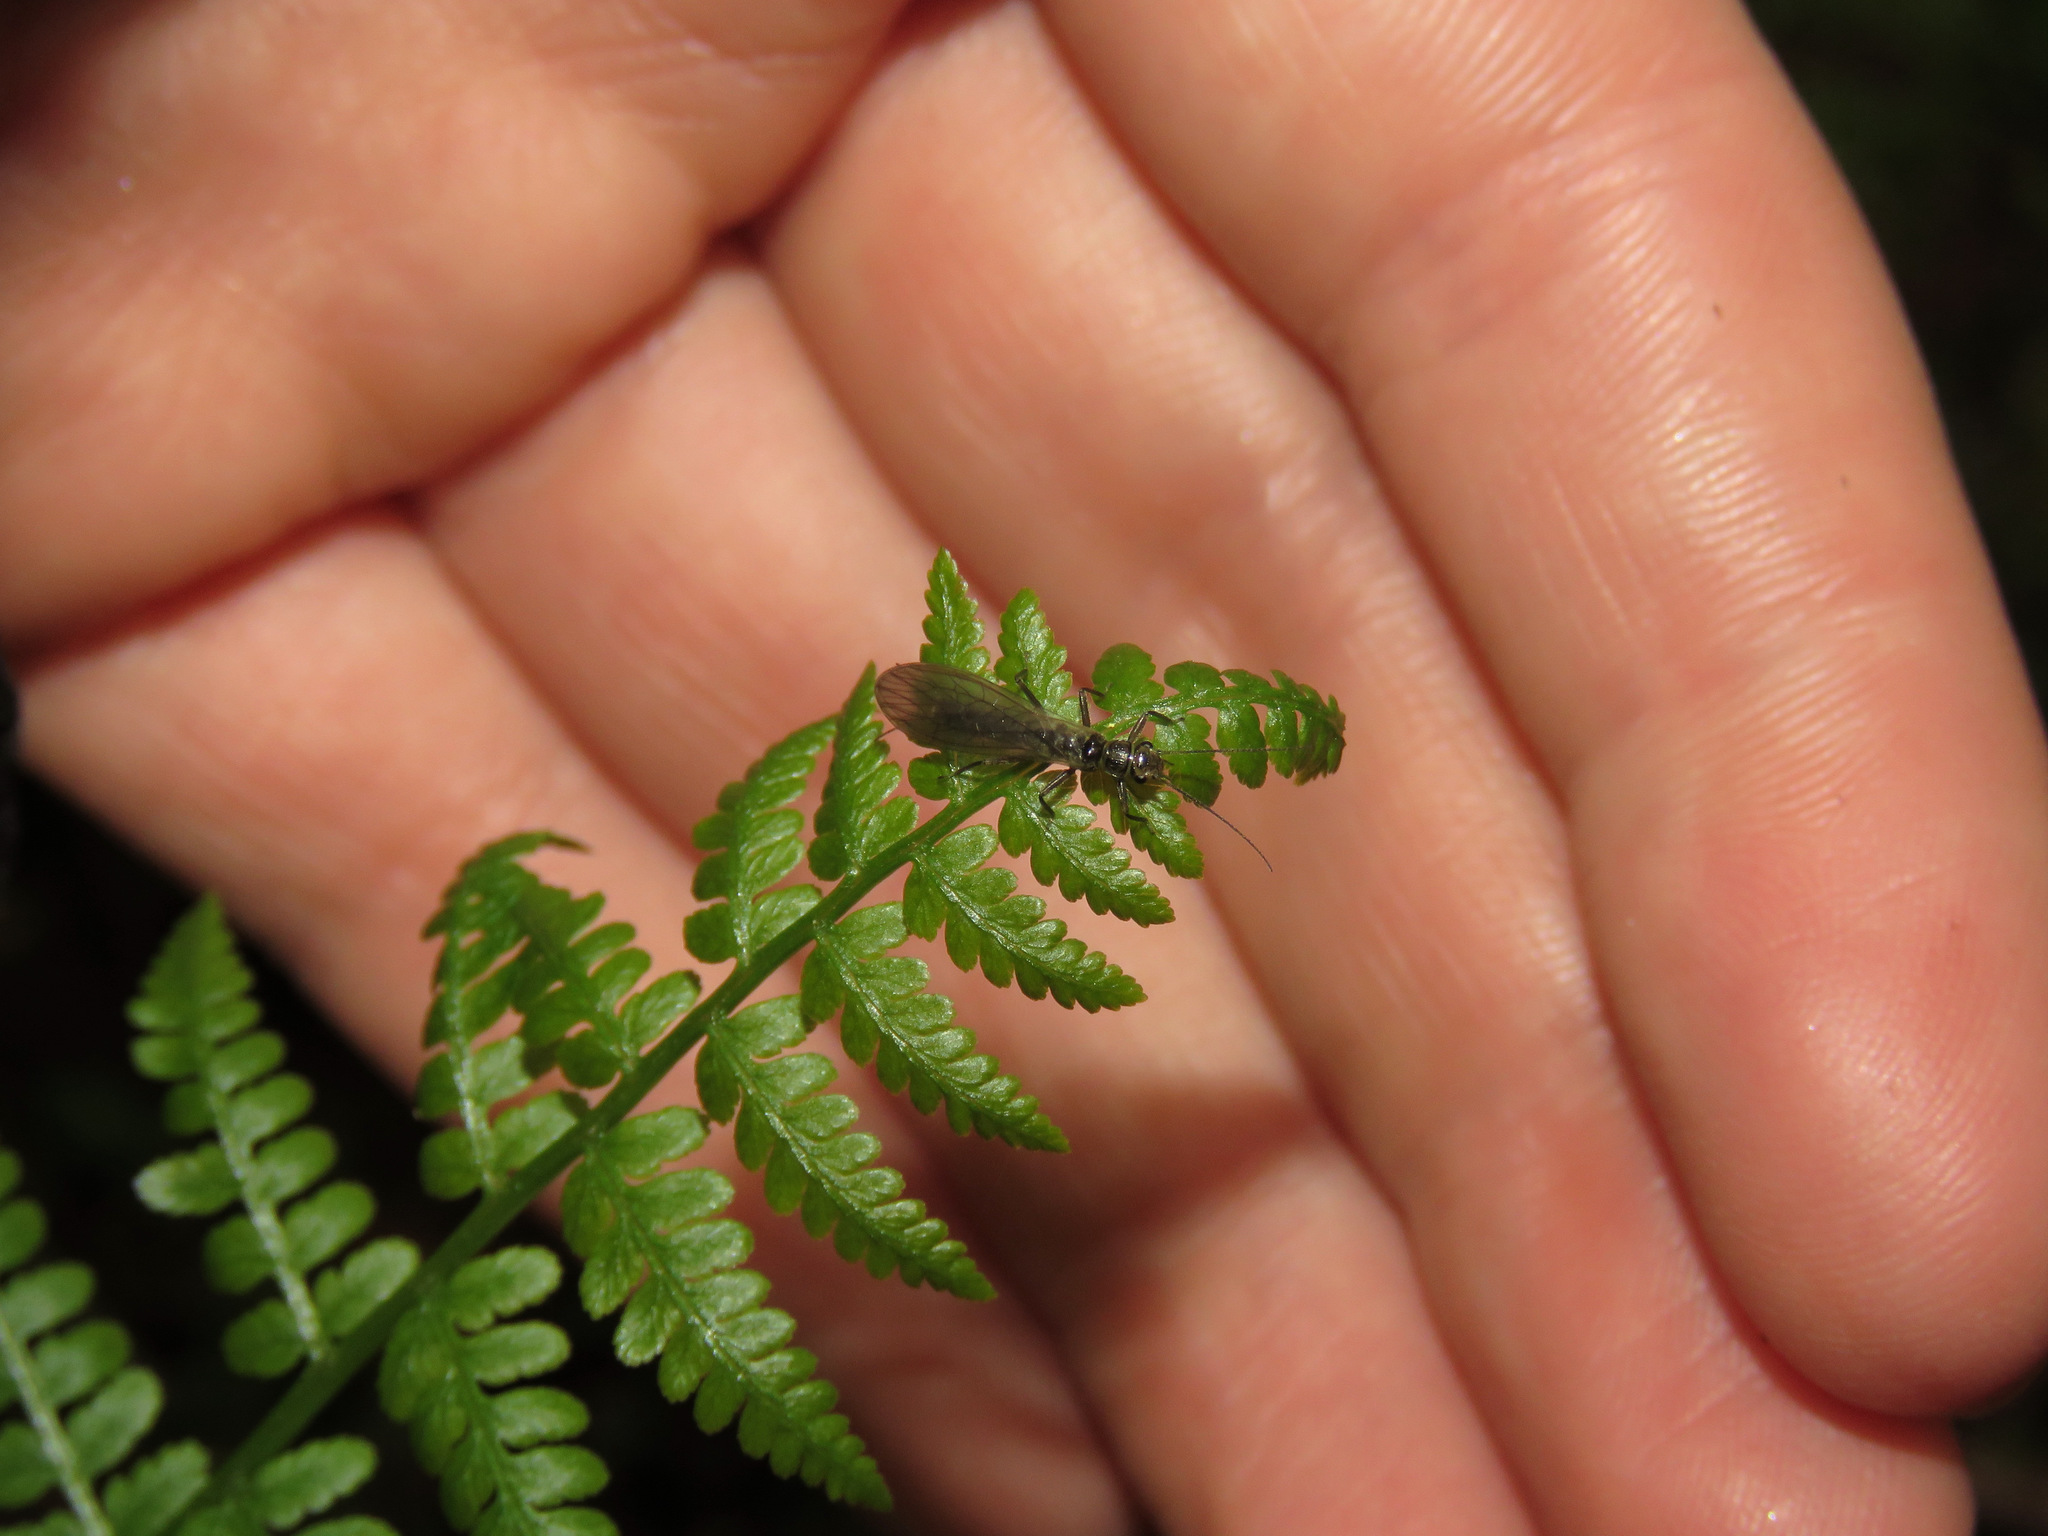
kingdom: Plantae
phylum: Tracheophyta
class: Polypodiopsida
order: Polypodiales
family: Athyriaceae
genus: Athyrium
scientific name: Athyrium cyclosorum
